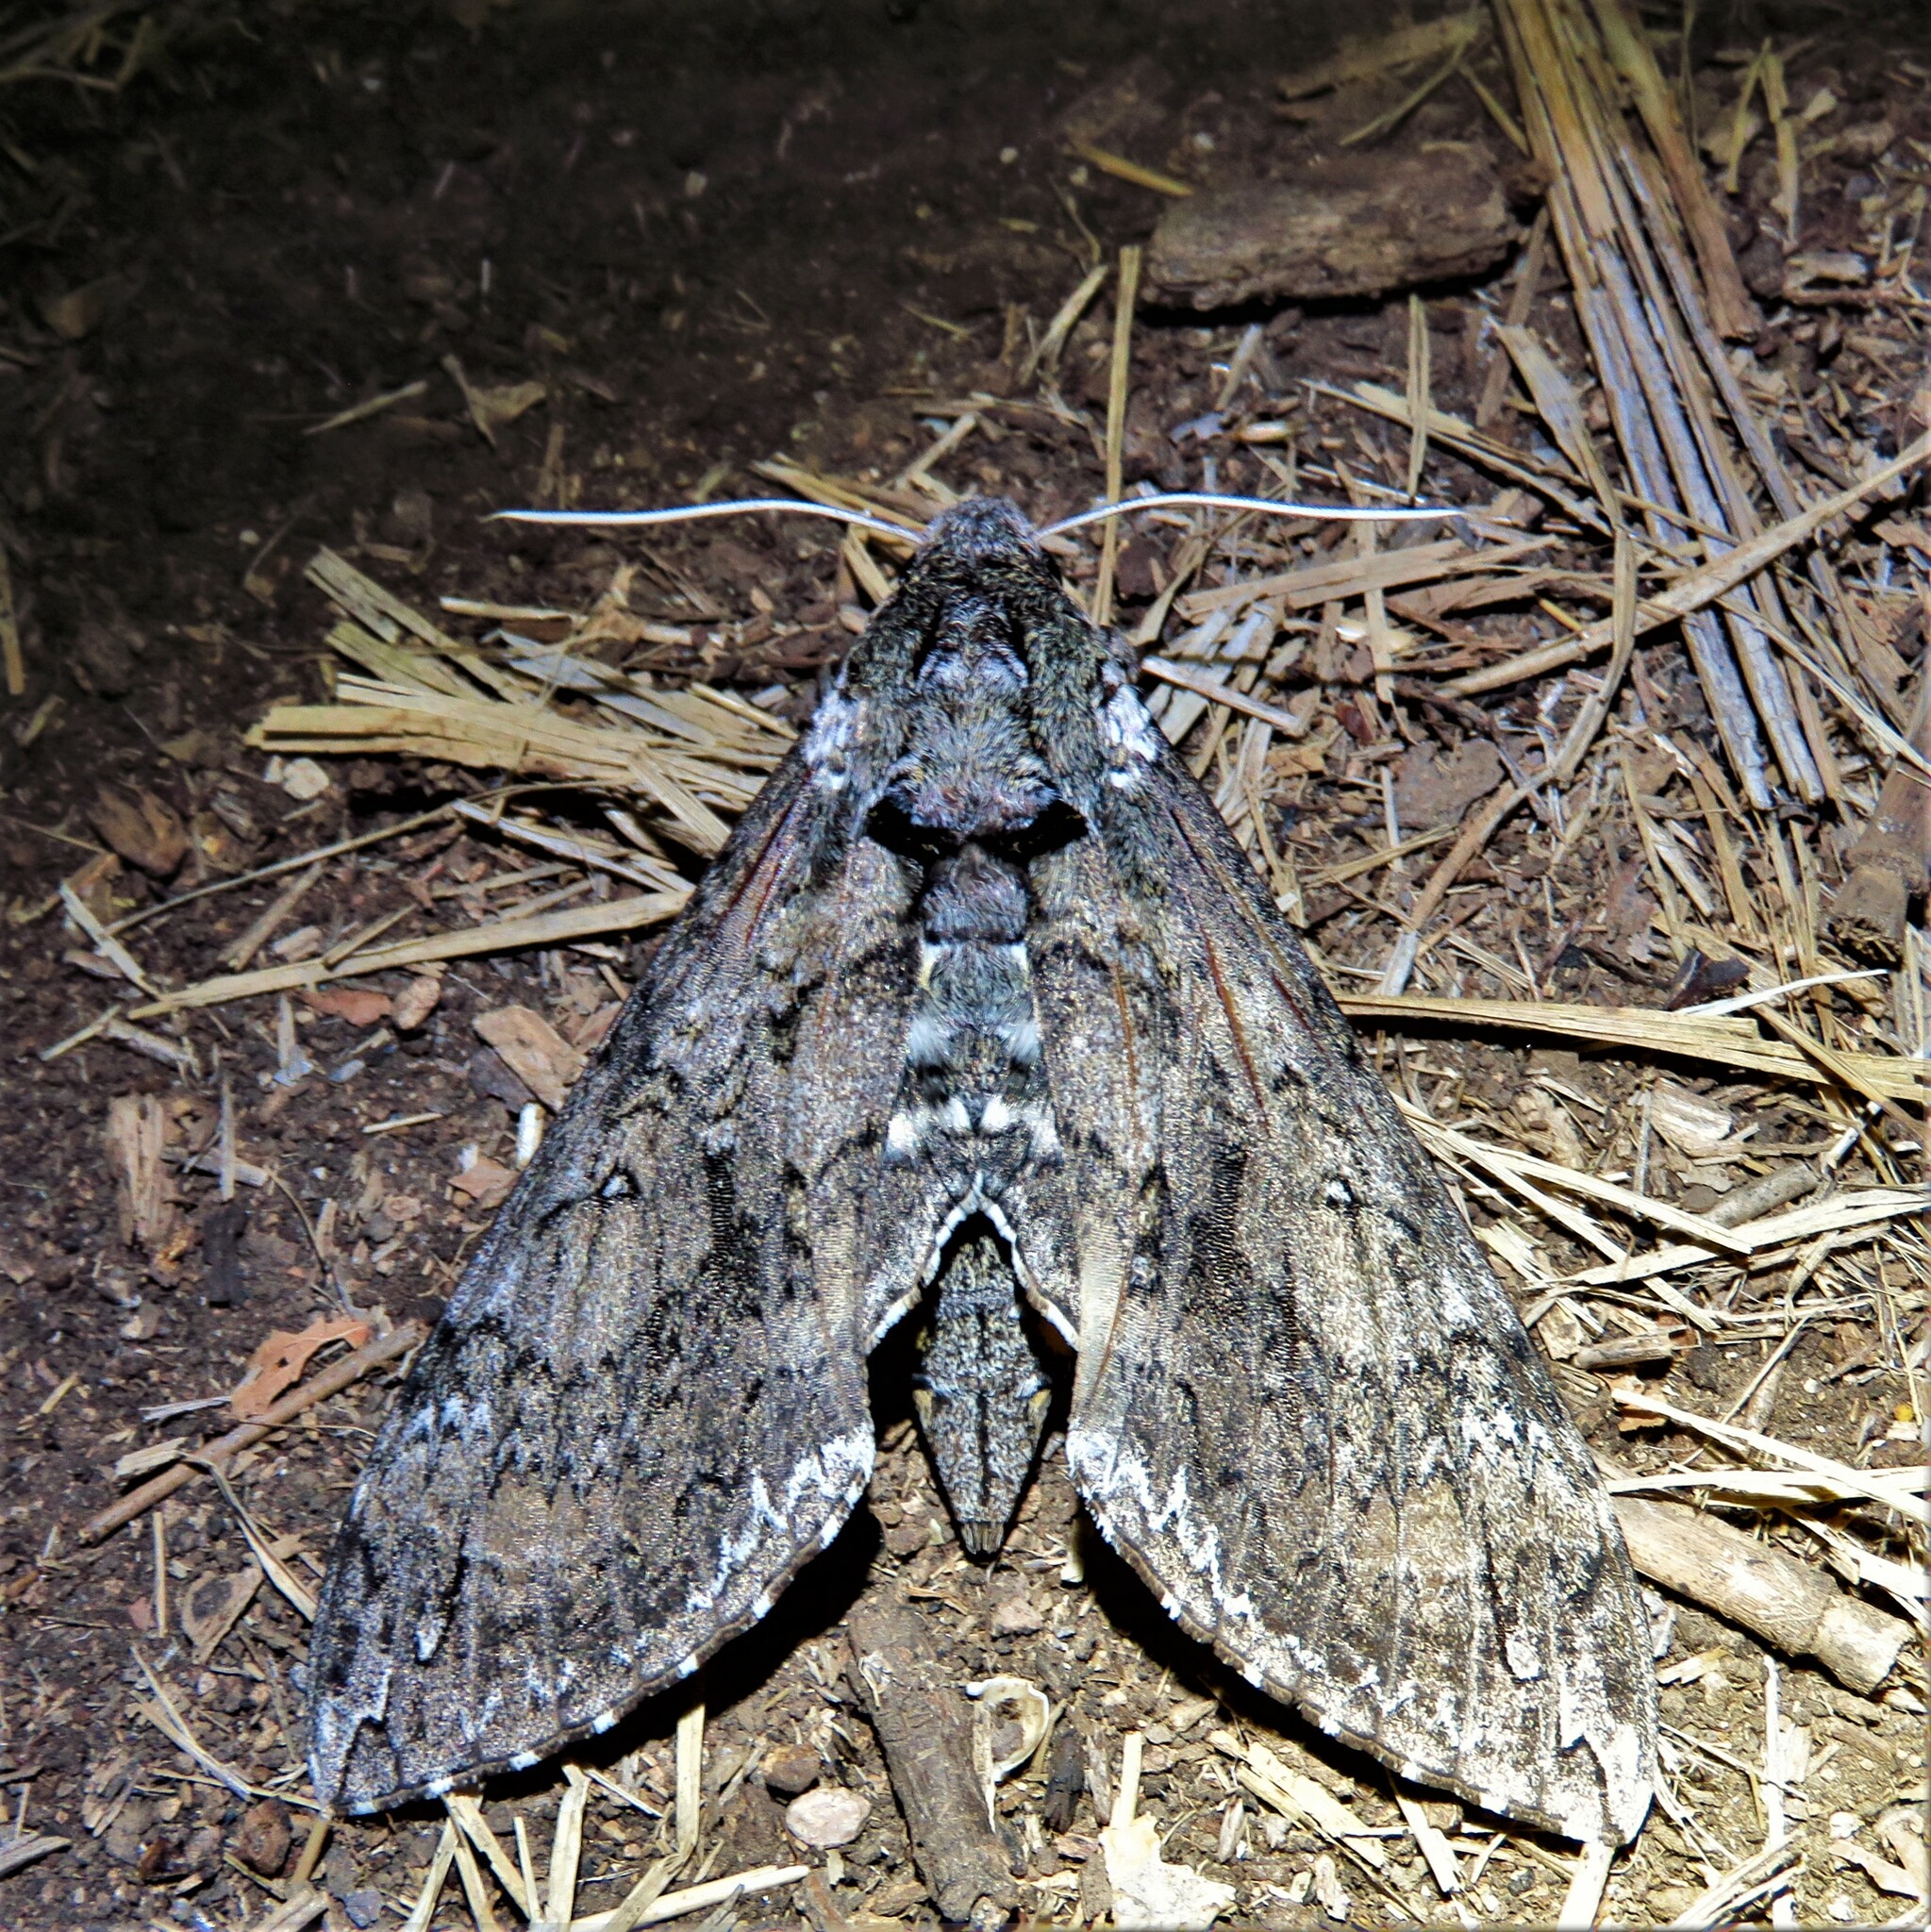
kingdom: Animalia
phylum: Arthropoda
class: Insecta
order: Lepidoptera
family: Sphingidae
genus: Manduca
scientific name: Manduca sexta
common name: Carolina sphinx
